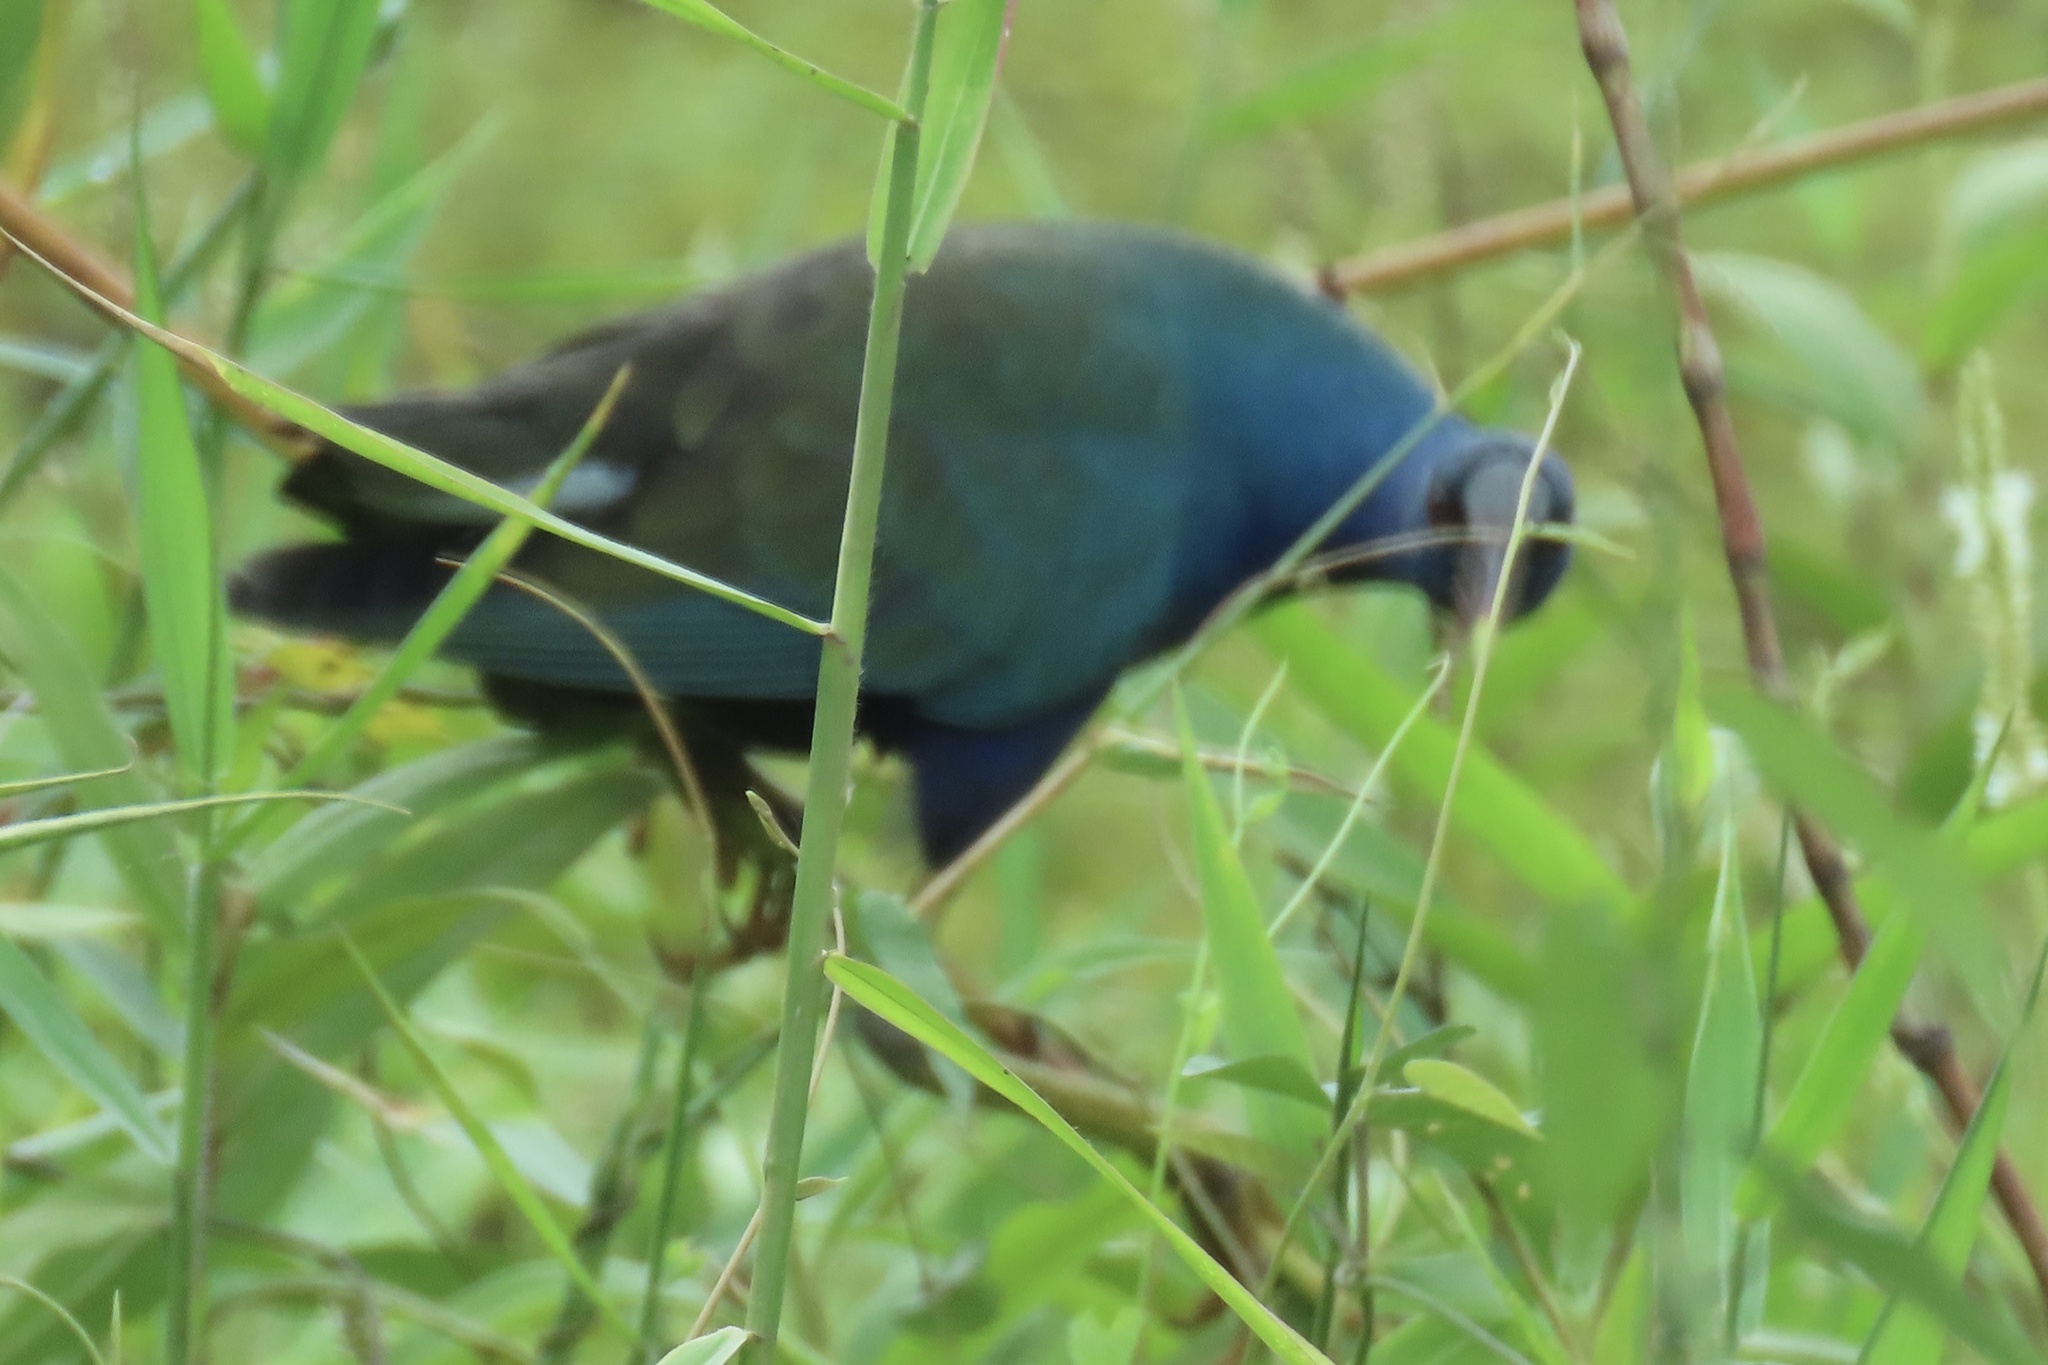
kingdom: Animalia
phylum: Chordata
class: Aves
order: Gruiformes
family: Rallidae
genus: Porphyrio
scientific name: Porphyrio martinica
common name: Purple gallinule
